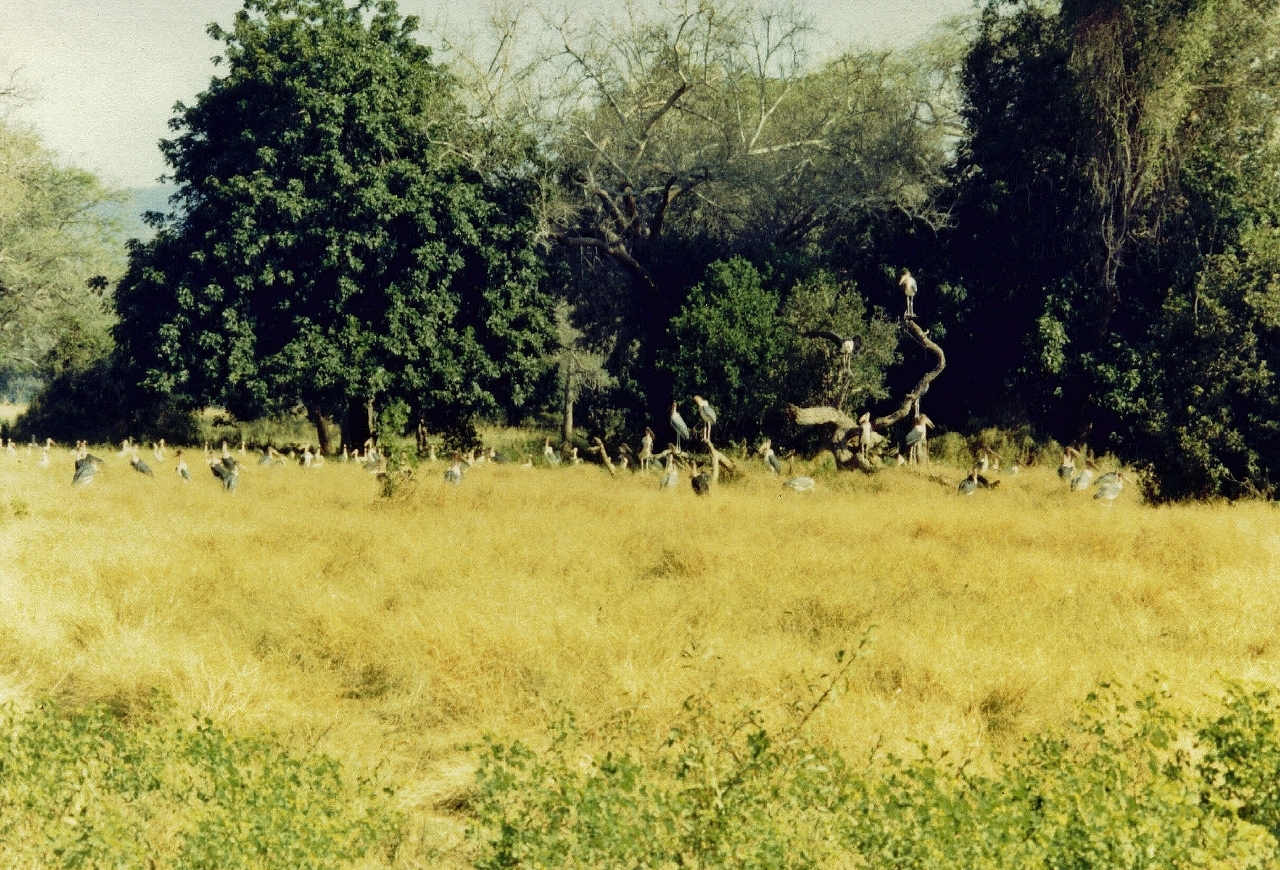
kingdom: Animalia
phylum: Chordata
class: Aves
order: Ciconiiformes
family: Ciconiidae
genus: Leptoptilos
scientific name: Leptoptilos crumenifer
